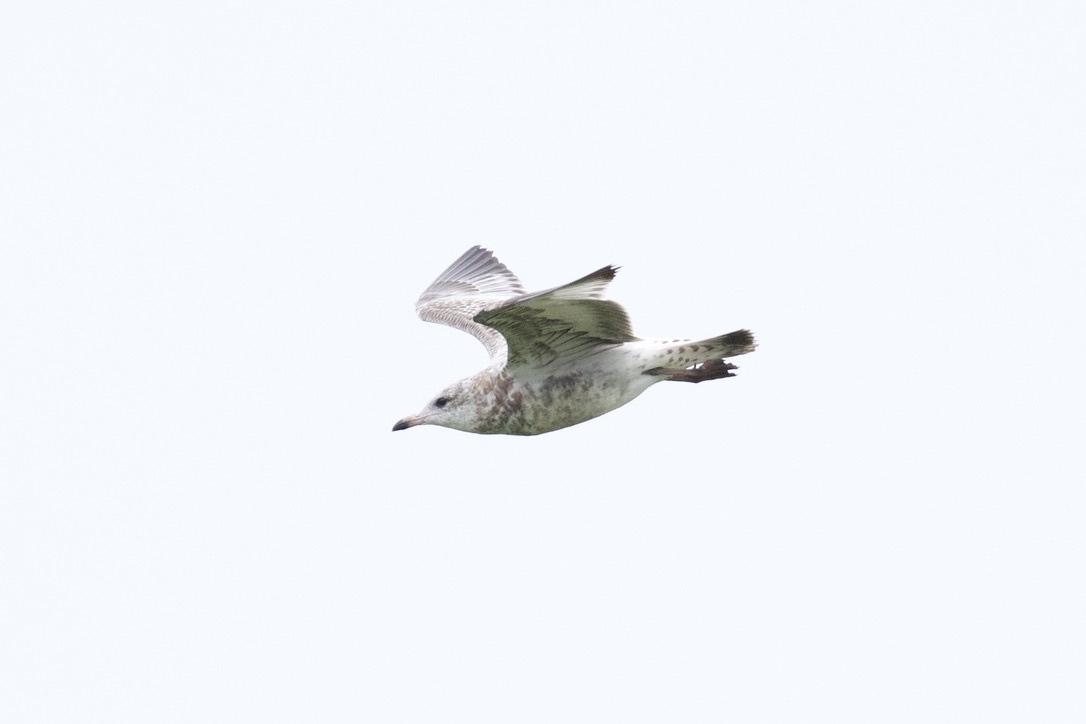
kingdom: Animalia
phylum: Chordata
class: Aves
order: Charadriiformes
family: Laridae
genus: Larus
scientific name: Larus delawarensis
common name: Ring-billed gull
